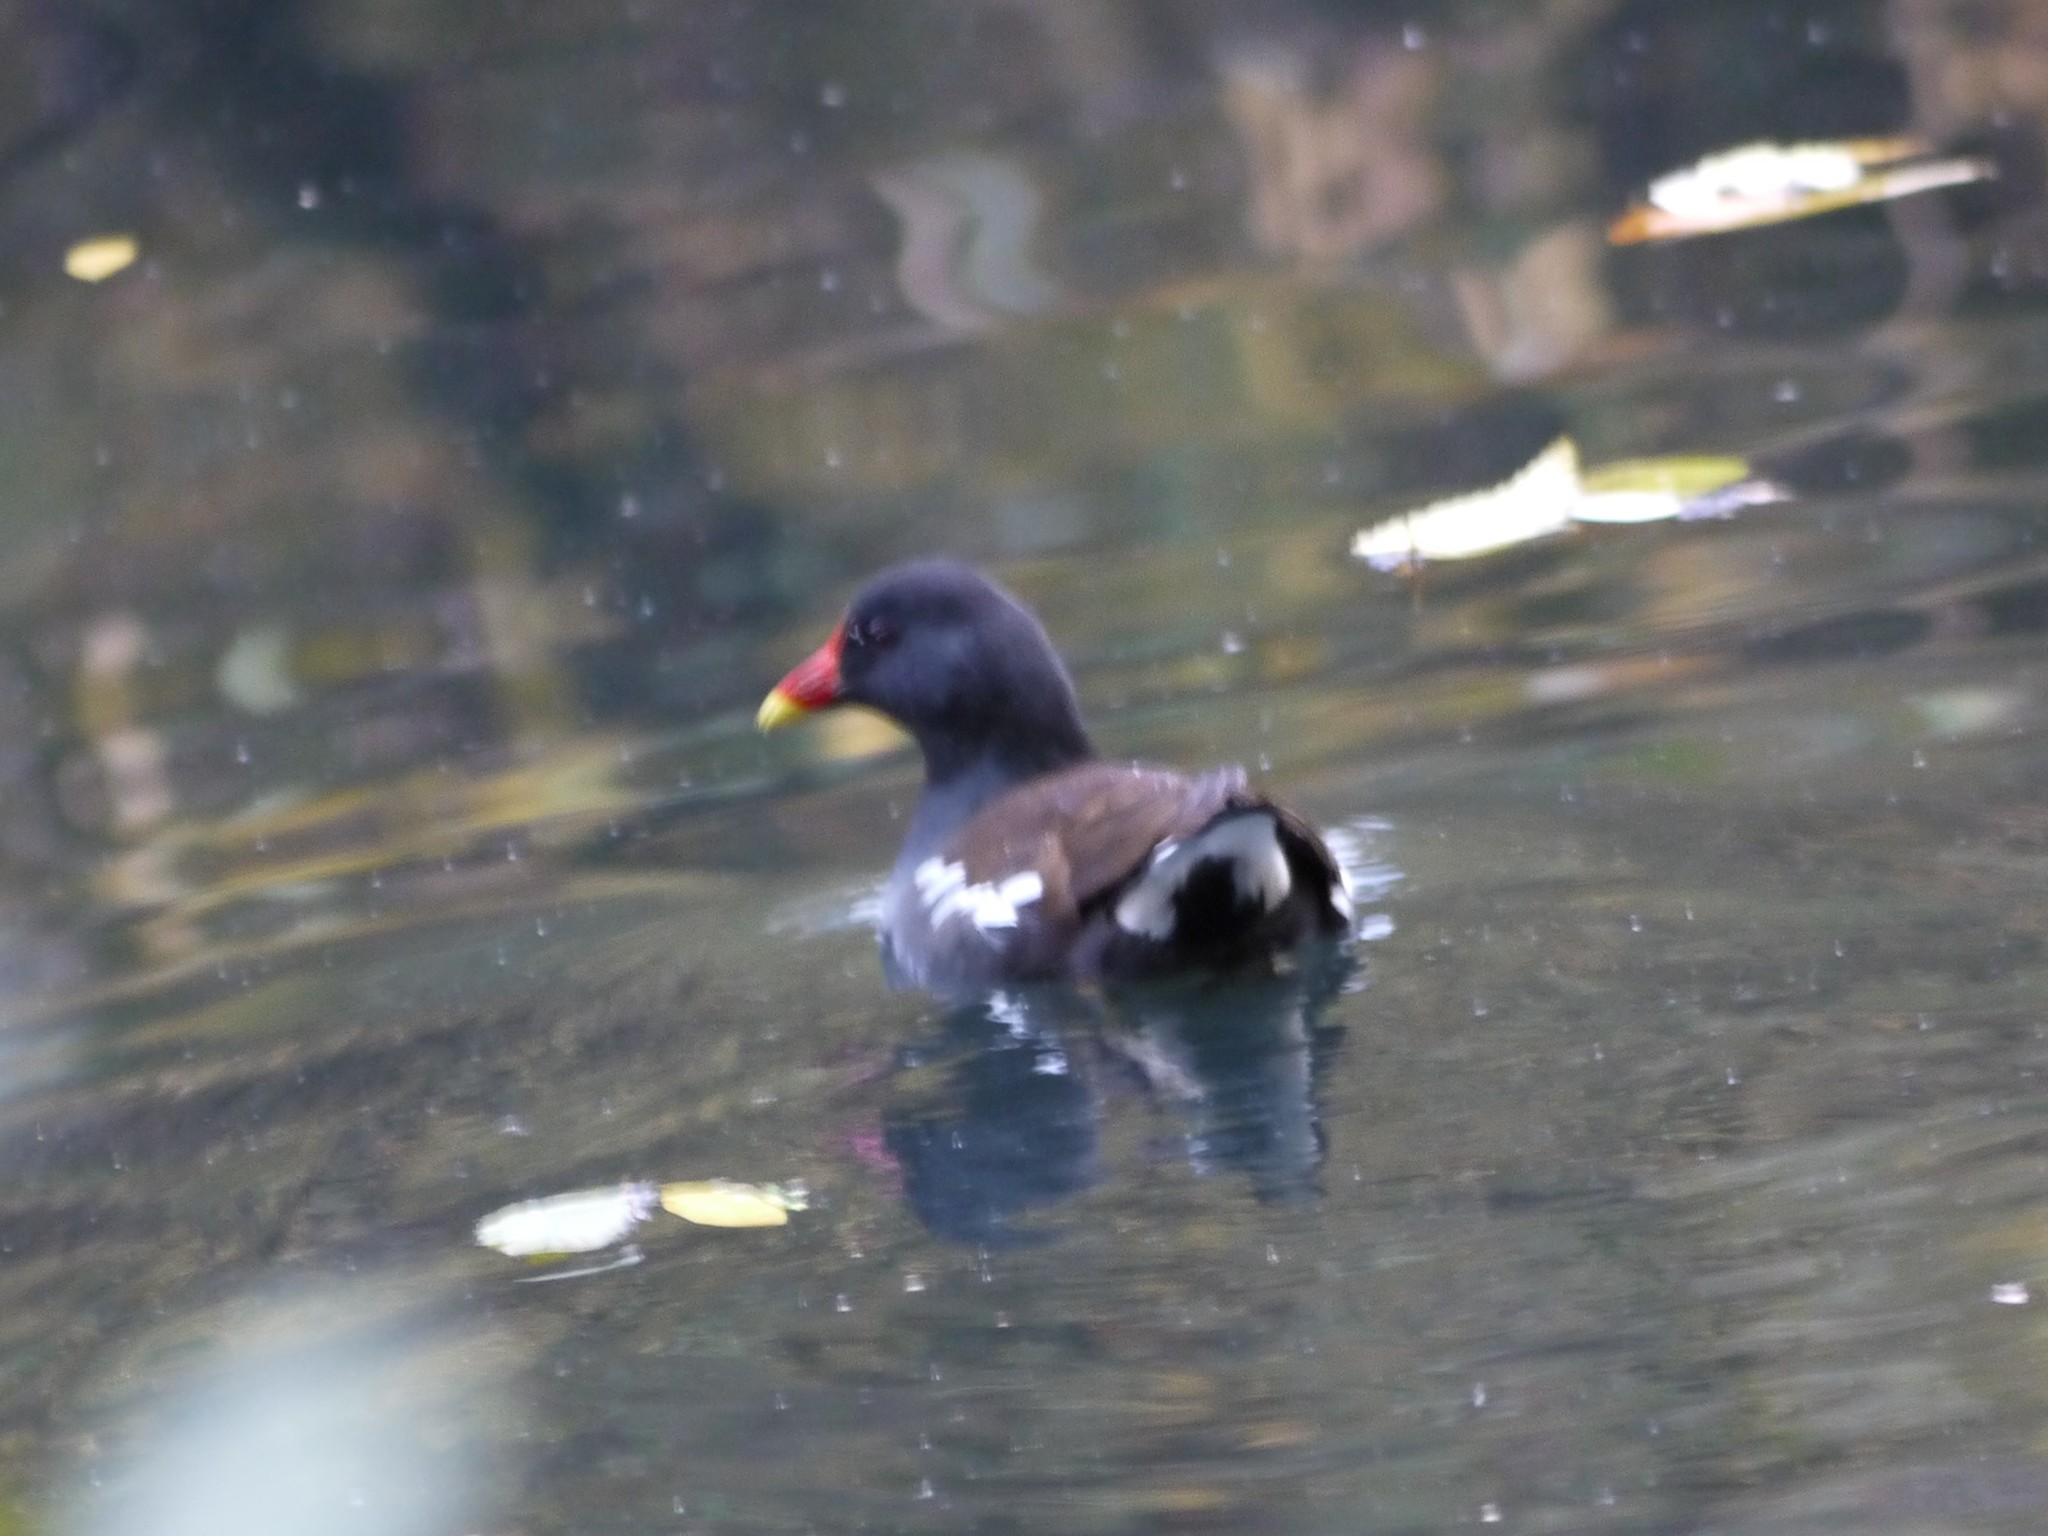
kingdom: Animalia
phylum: Chordata
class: Aves
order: Gruiformes
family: Rallidae
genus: Gallinula
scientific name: Gallinula chloropus
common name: Common moorhen
